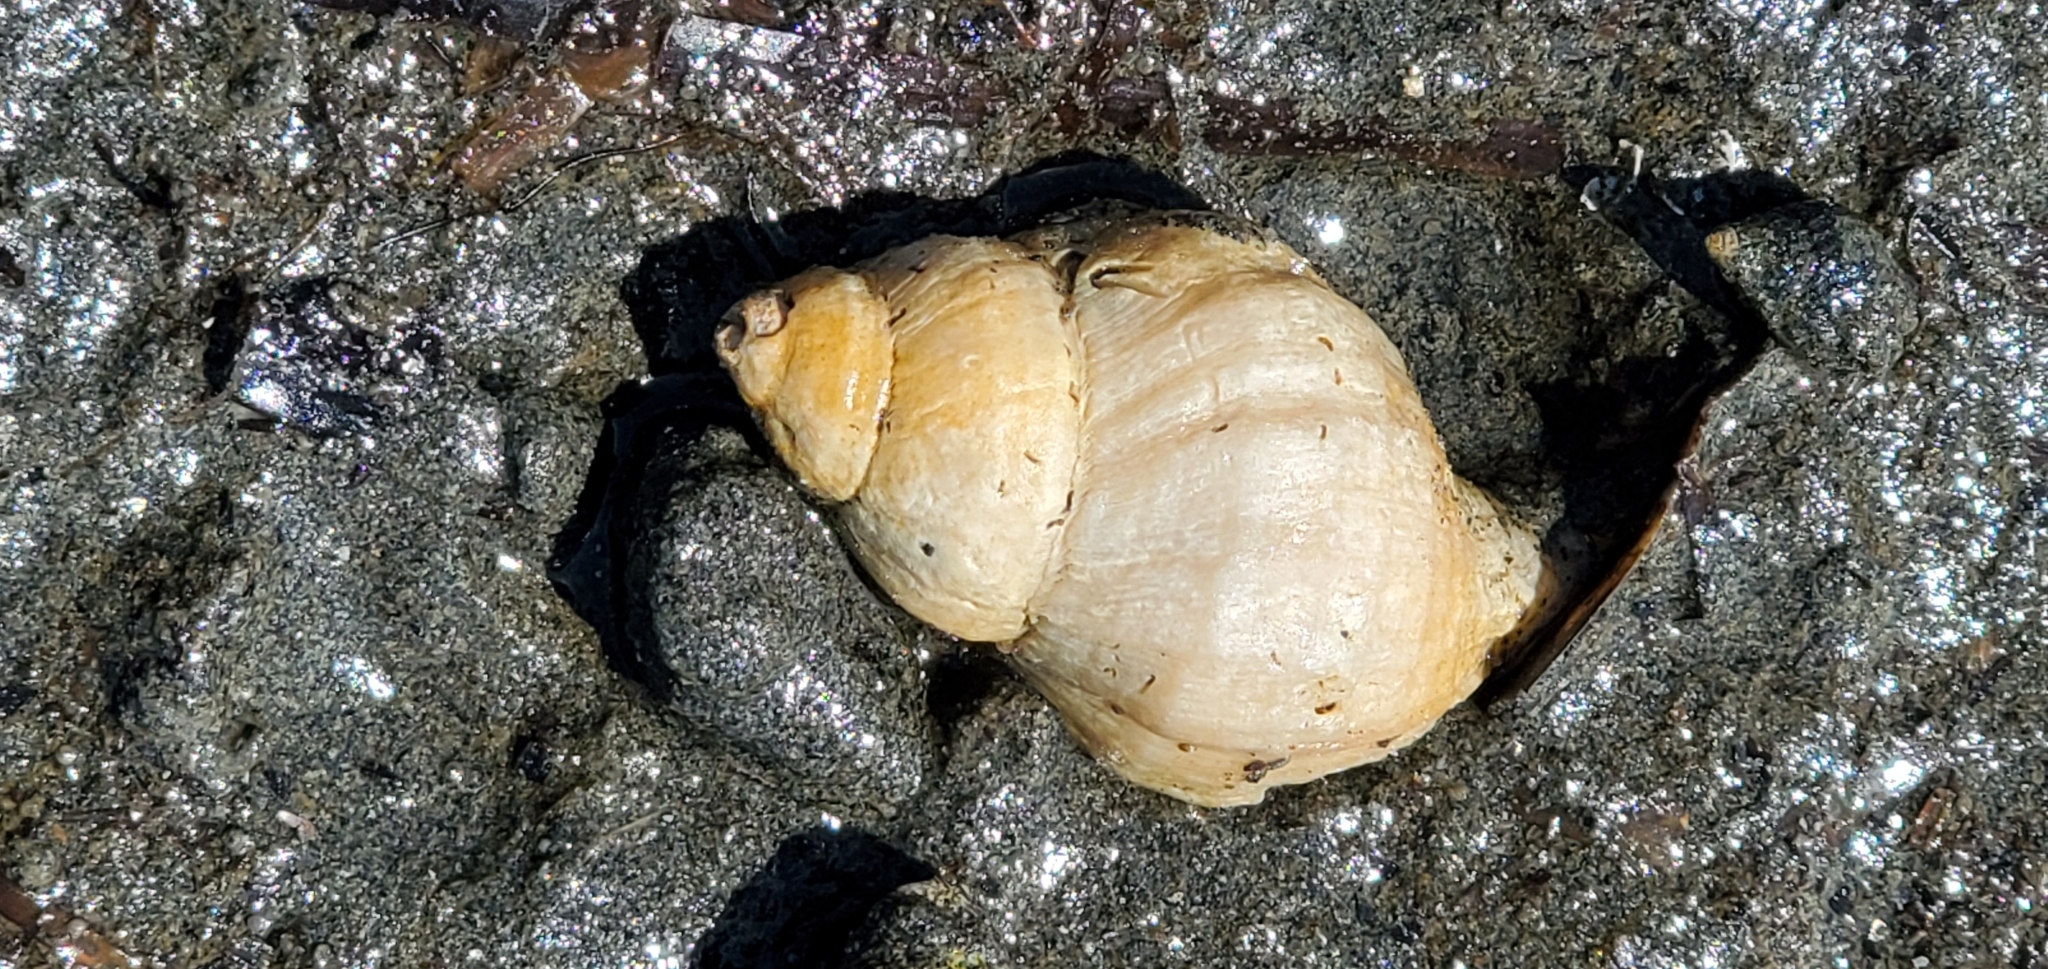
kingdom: Animalia
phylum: Mollusca
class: Gastropoda
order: Neogastropoda
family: Muricidae
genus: Nucella
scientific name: Nucella lamellosa
